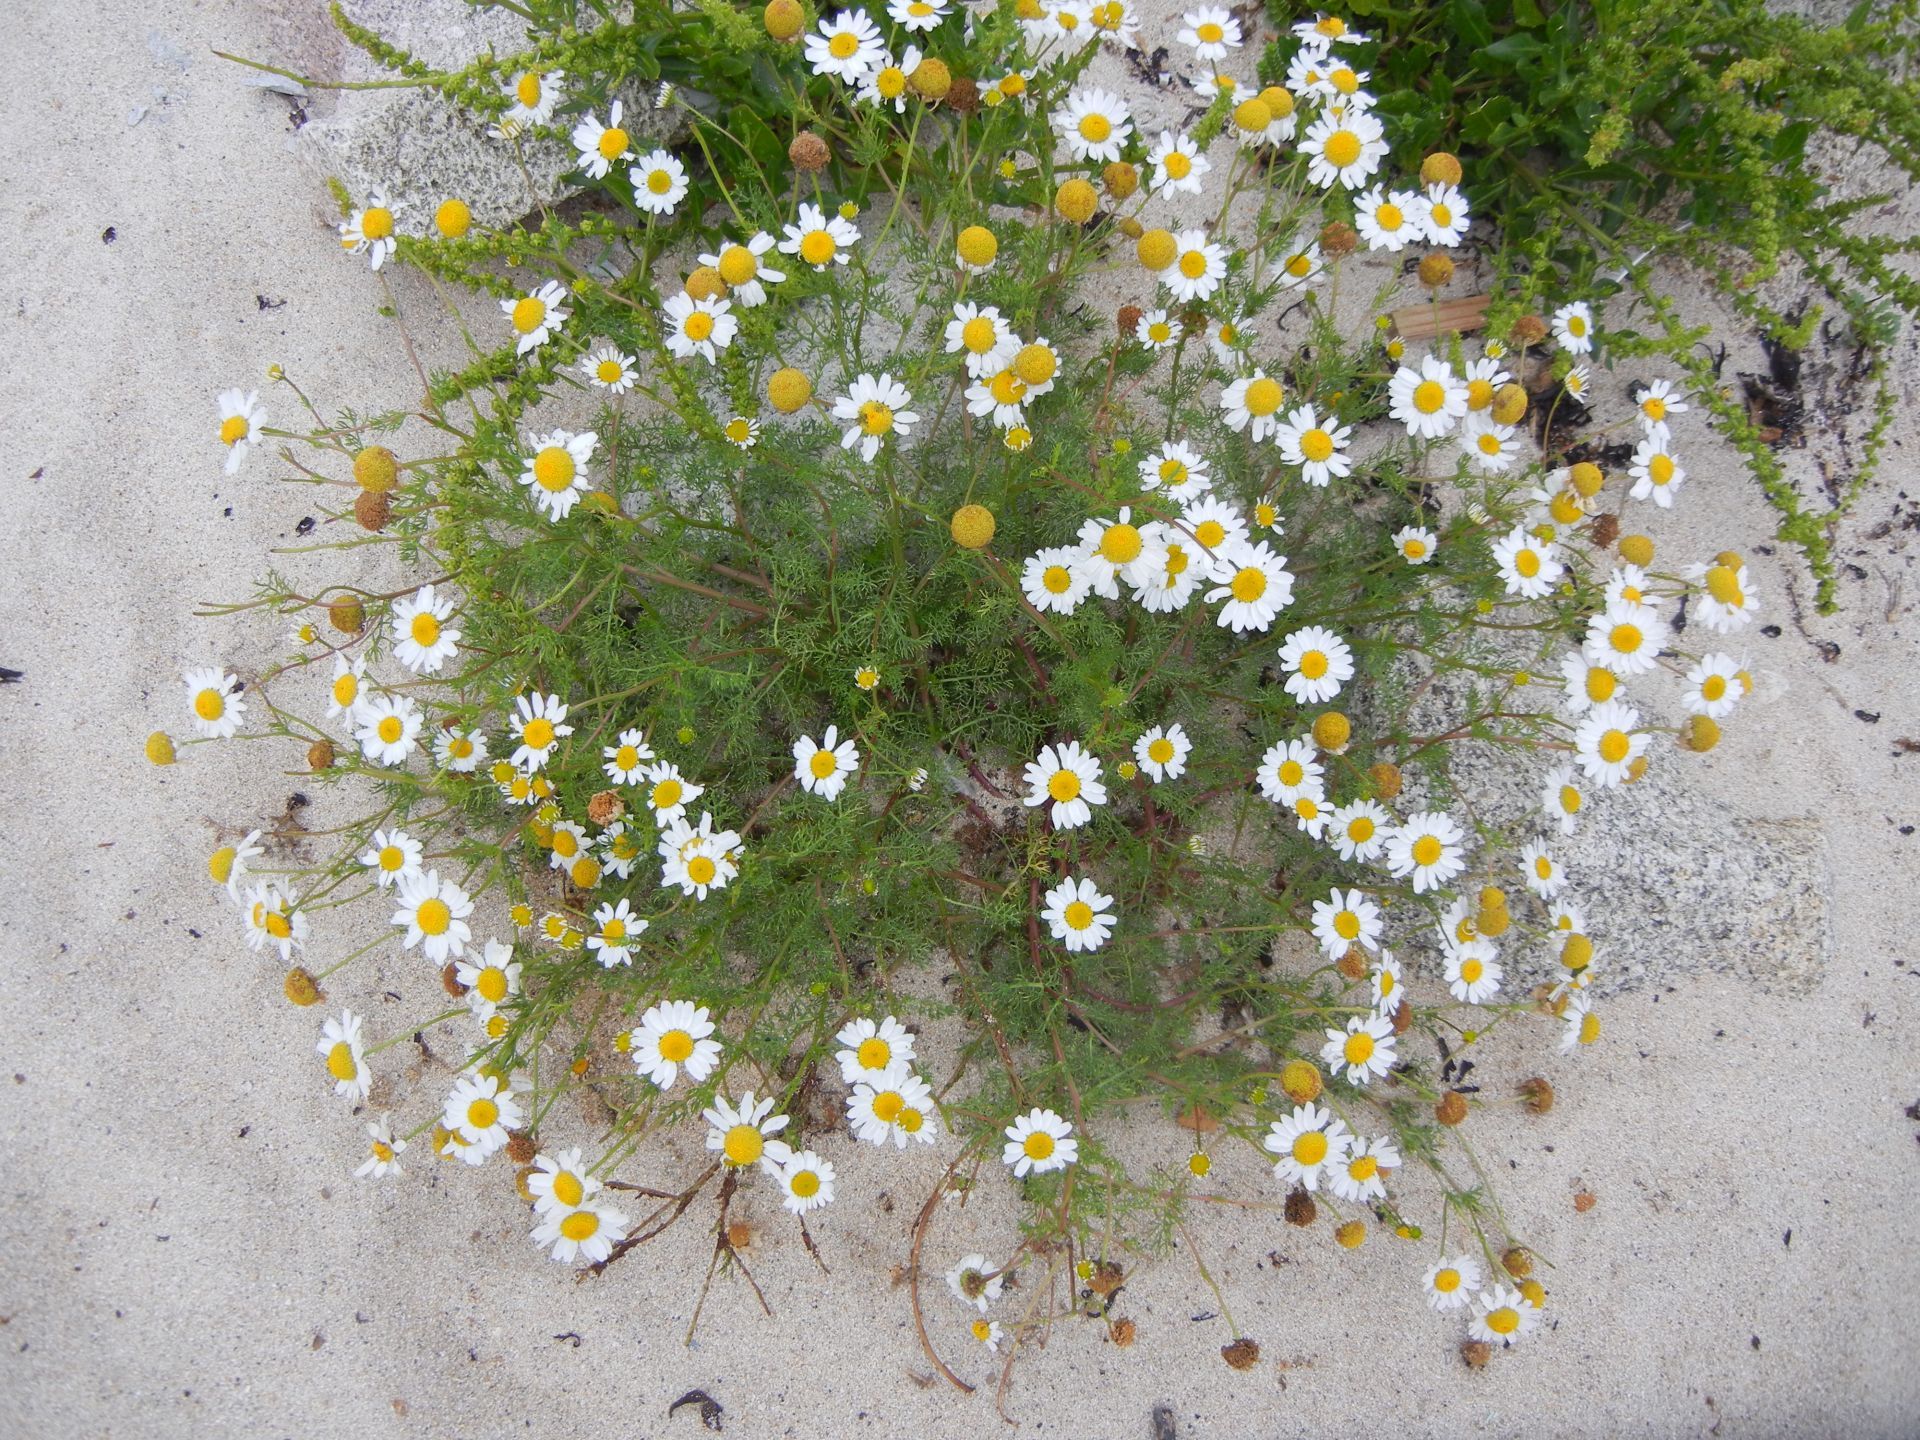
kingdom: Plantae
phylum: Tracheophyta
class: Magnoliopsida
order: Asterales
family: Asteraceae
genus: Tripleurospermum
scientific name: Tripleurospermum maritimum
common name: Sea mayweed
